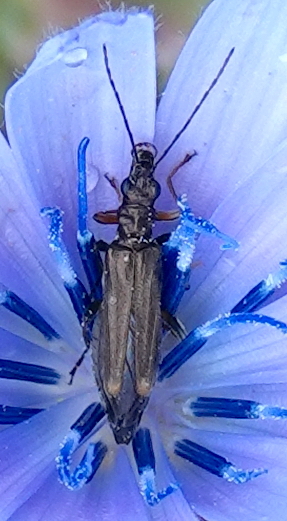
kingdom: Animalia
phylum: Arthropoda
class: Insecta
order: Coleoptera
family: Oedemeridae
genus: Oedemera
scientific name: Oedemera barbara
